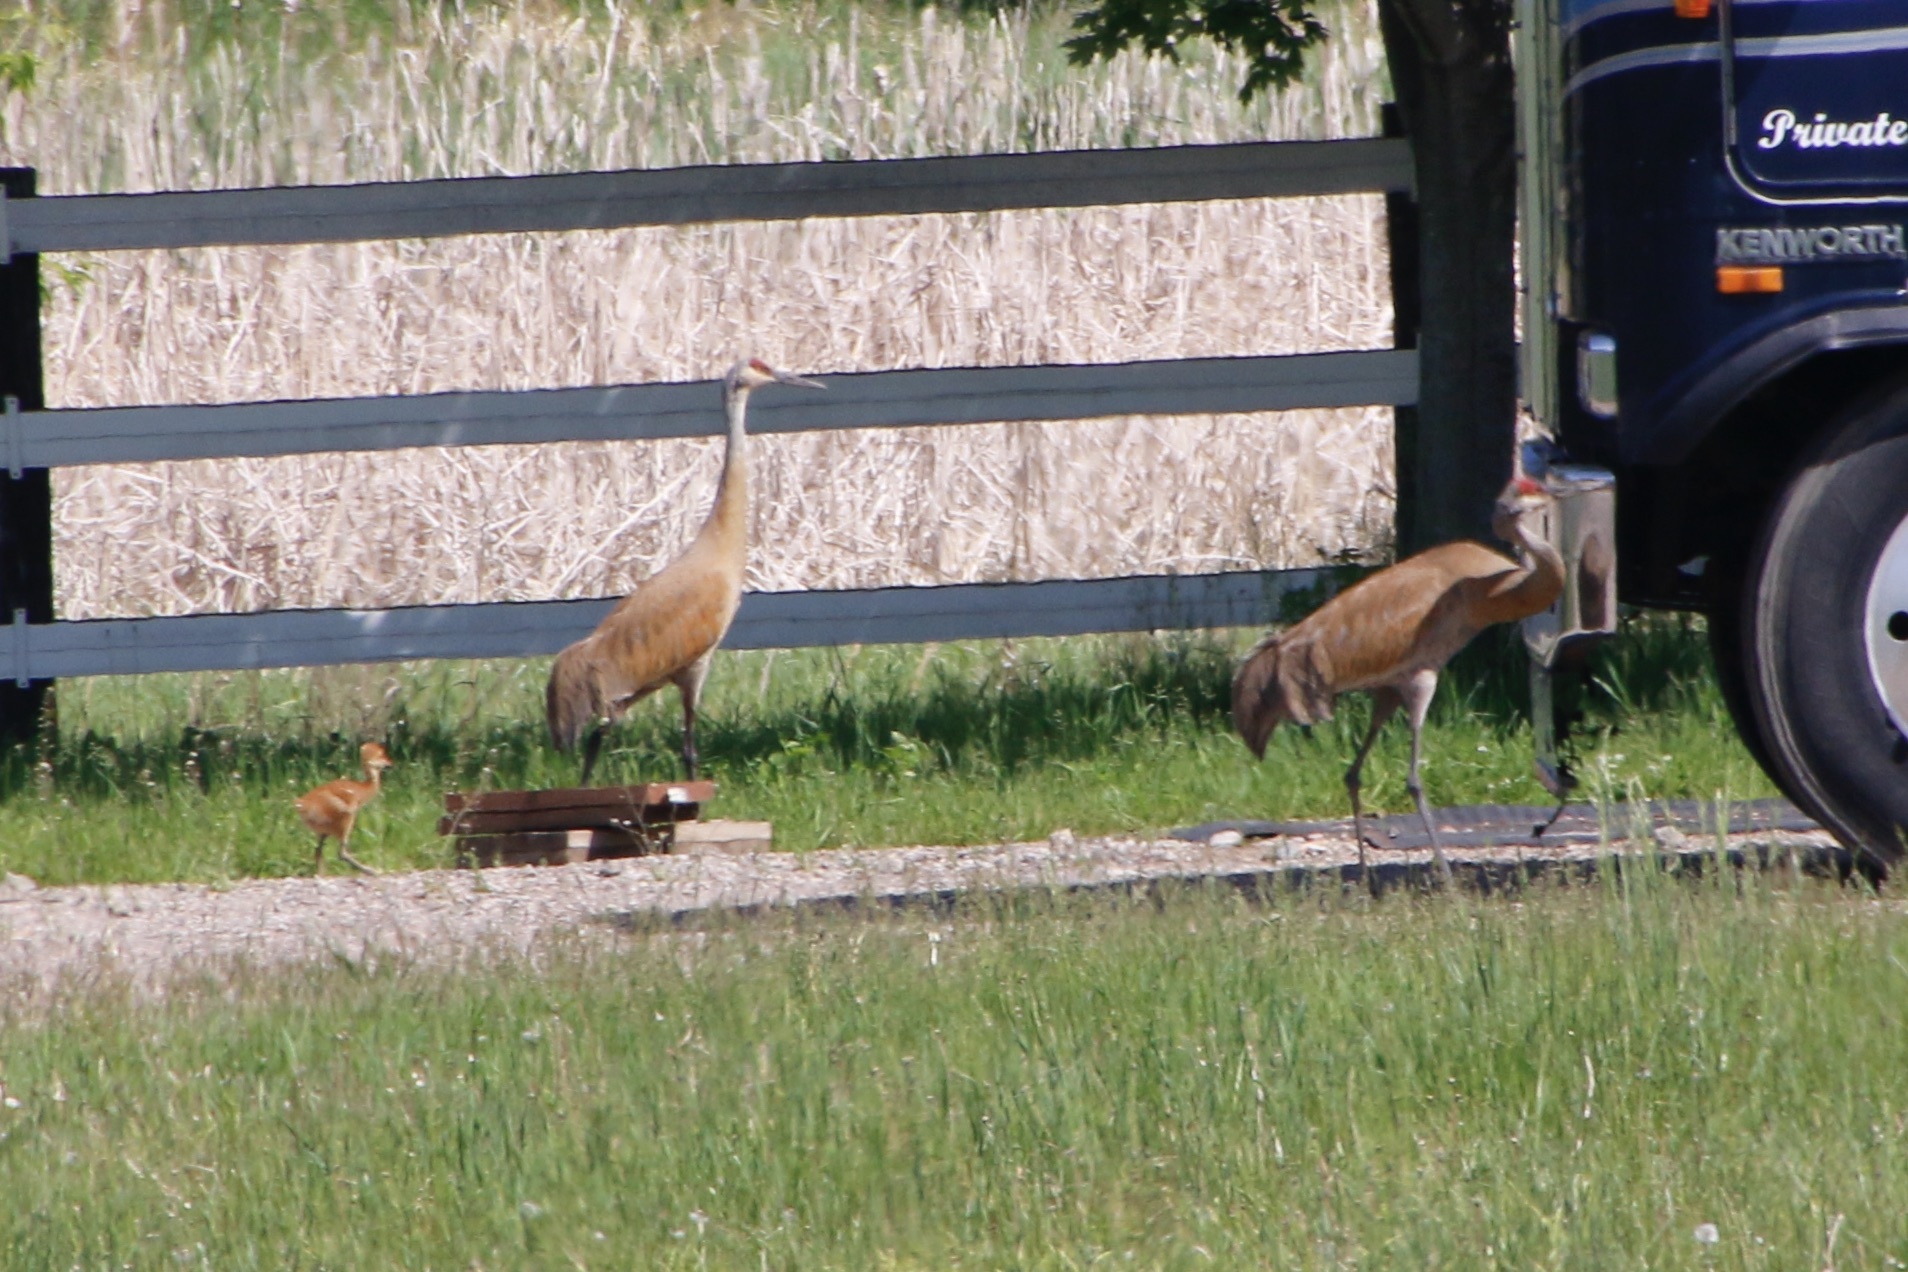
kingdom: Animalia
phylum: Chordata
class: Aves
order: Gruiformes
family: Gruidae
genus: Grus
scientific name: Grus canadensis
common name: Sandhill crane
